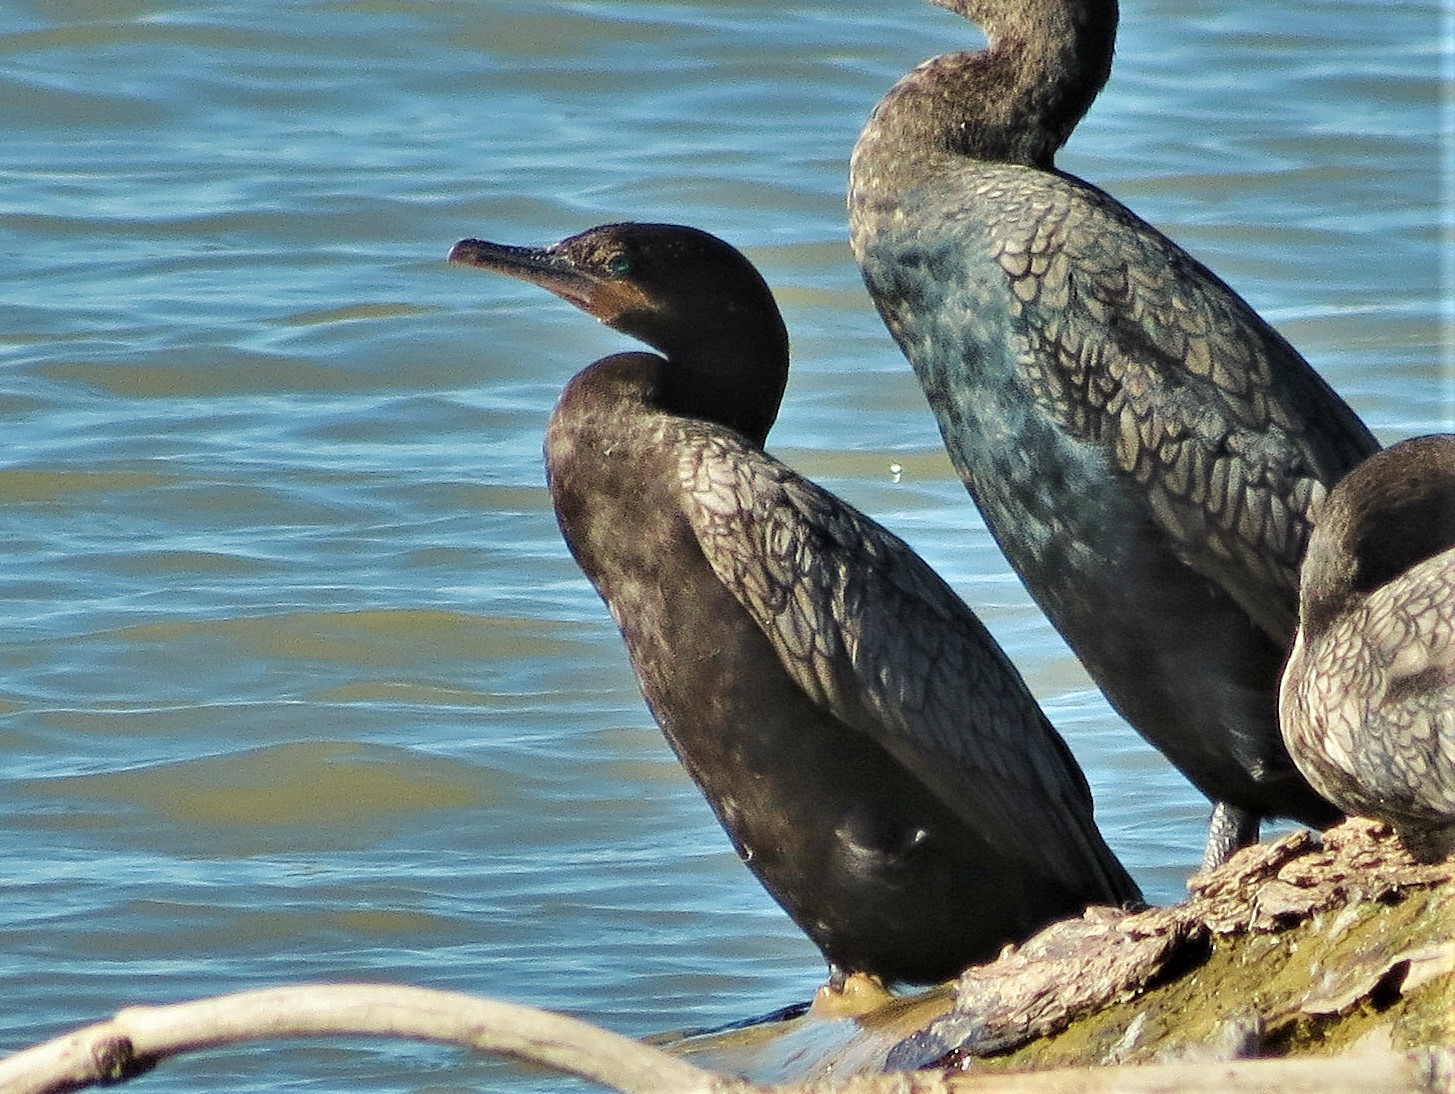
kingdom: Animalia
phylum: Chordata
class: Aves
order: Suliformes
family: Phalacrocoracidae
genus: Phalacrocorax
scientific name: Phalacrocorax brasilianus
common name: Neotropic cormorant
